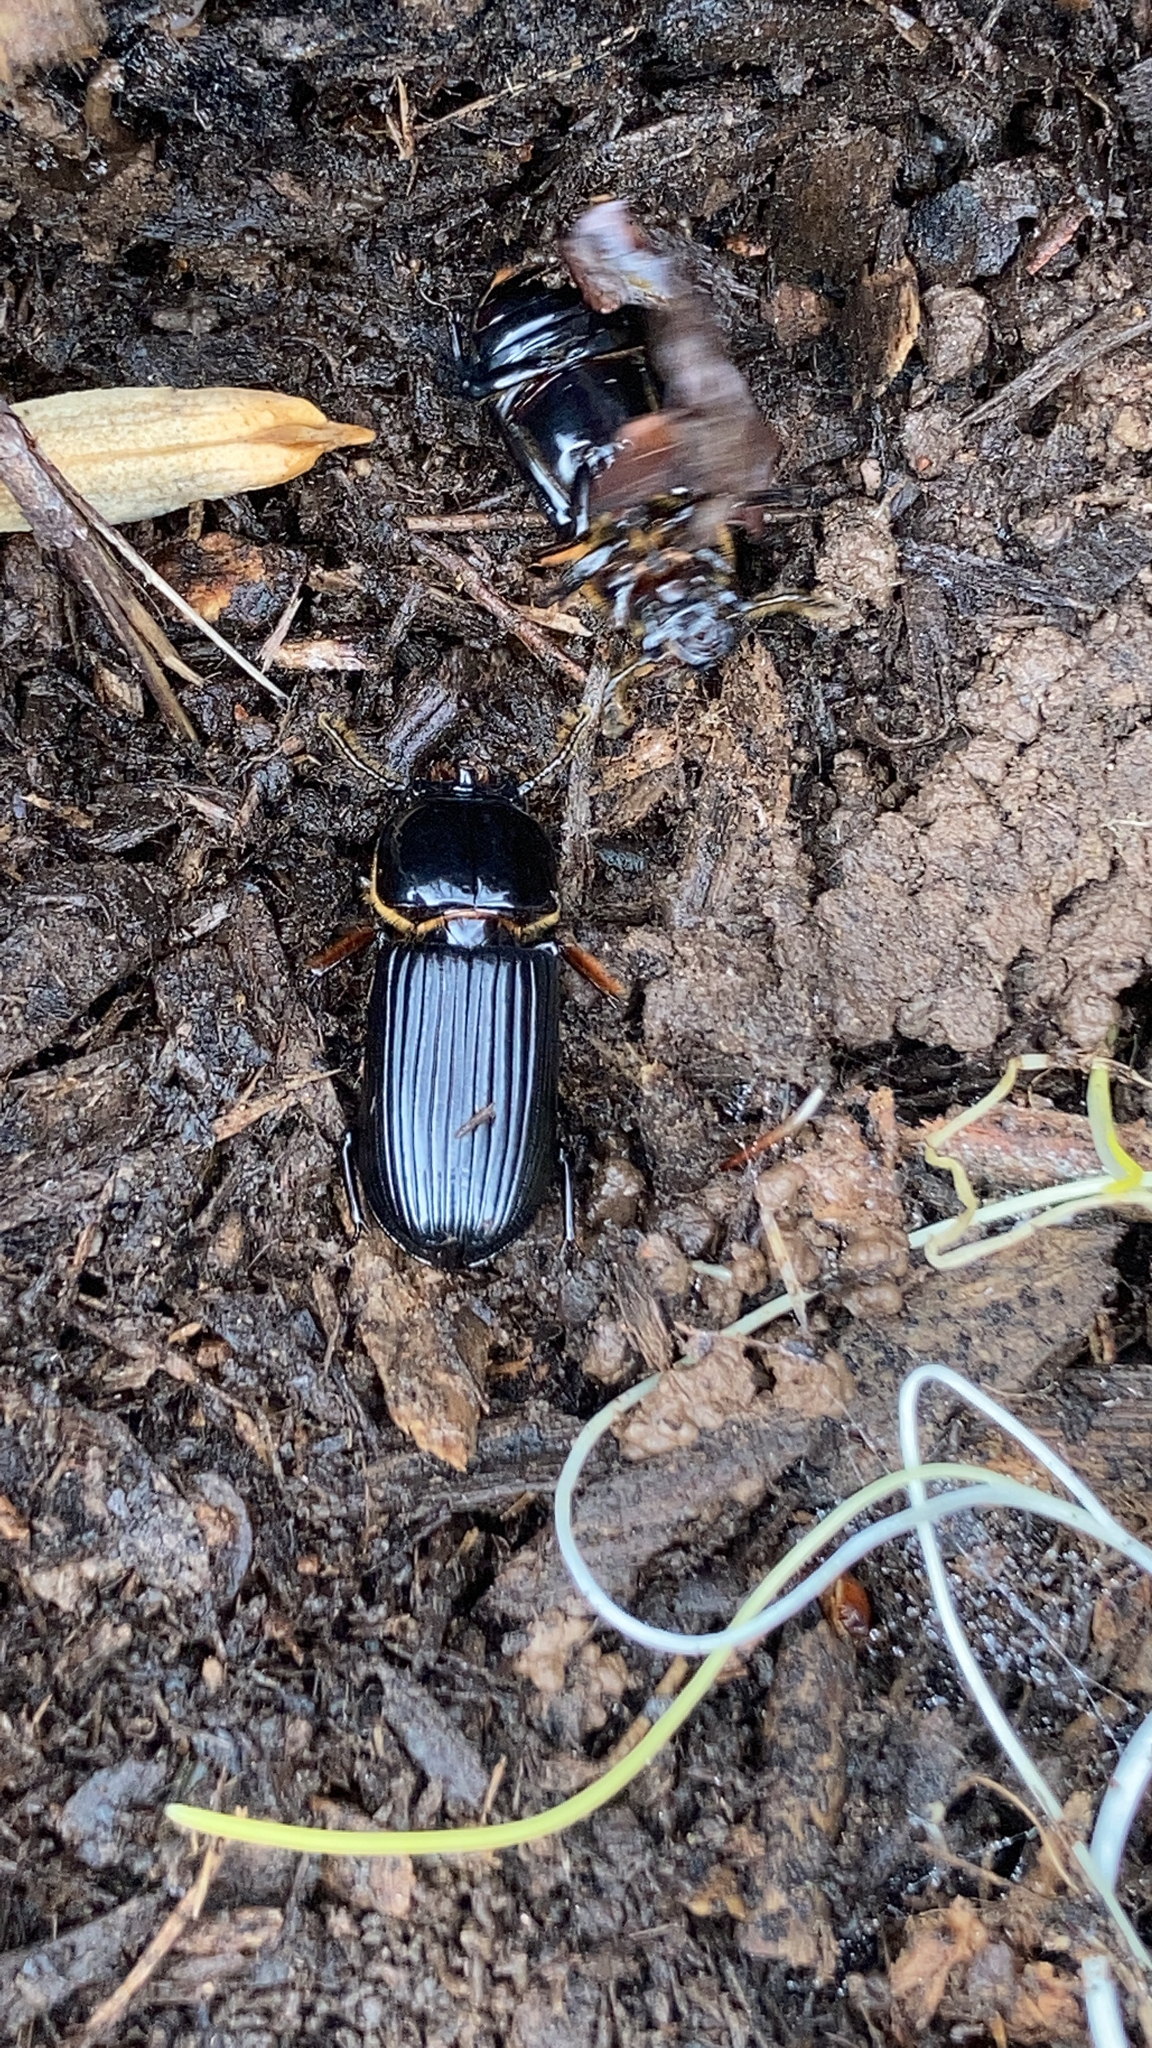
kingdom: Animalia
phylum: Arthropoda
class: Insecta
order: Coleoptera
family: Passalidae
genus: Odontotaenius
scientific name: Odontotaenius disjunctus
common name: Patent leather beetle
